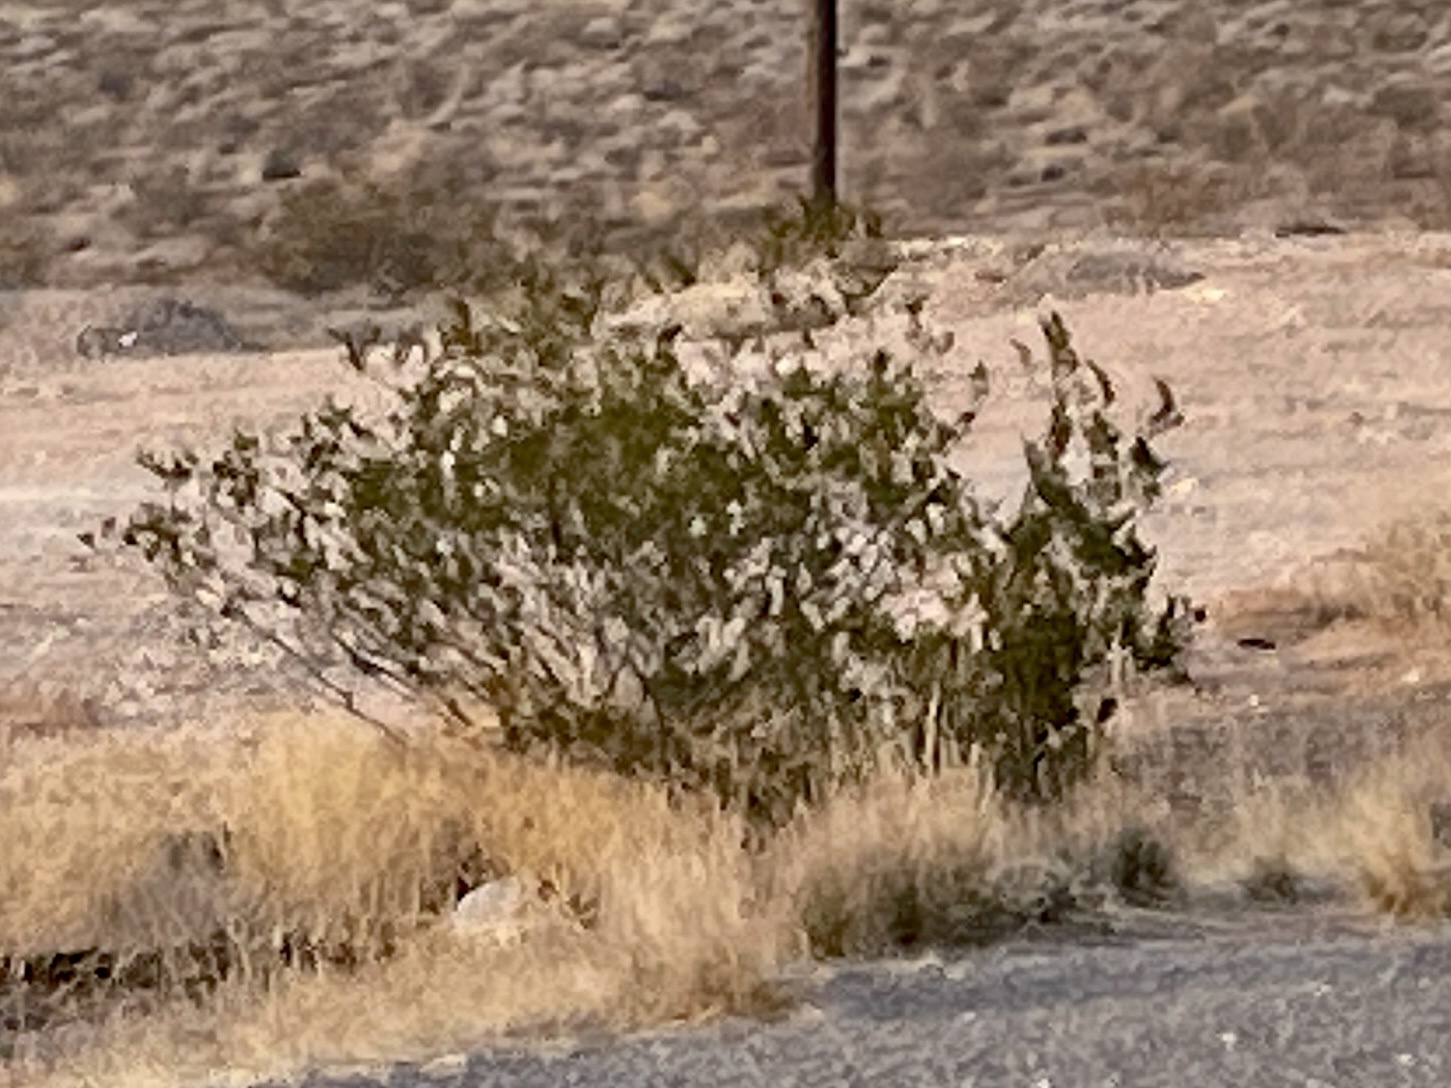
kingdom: Plantae
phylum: Tracheophyta
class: Magnoliopsida
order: Zygophyllales
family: Zygophyllaceae
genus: Larrea
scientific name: Larrea tridentata
